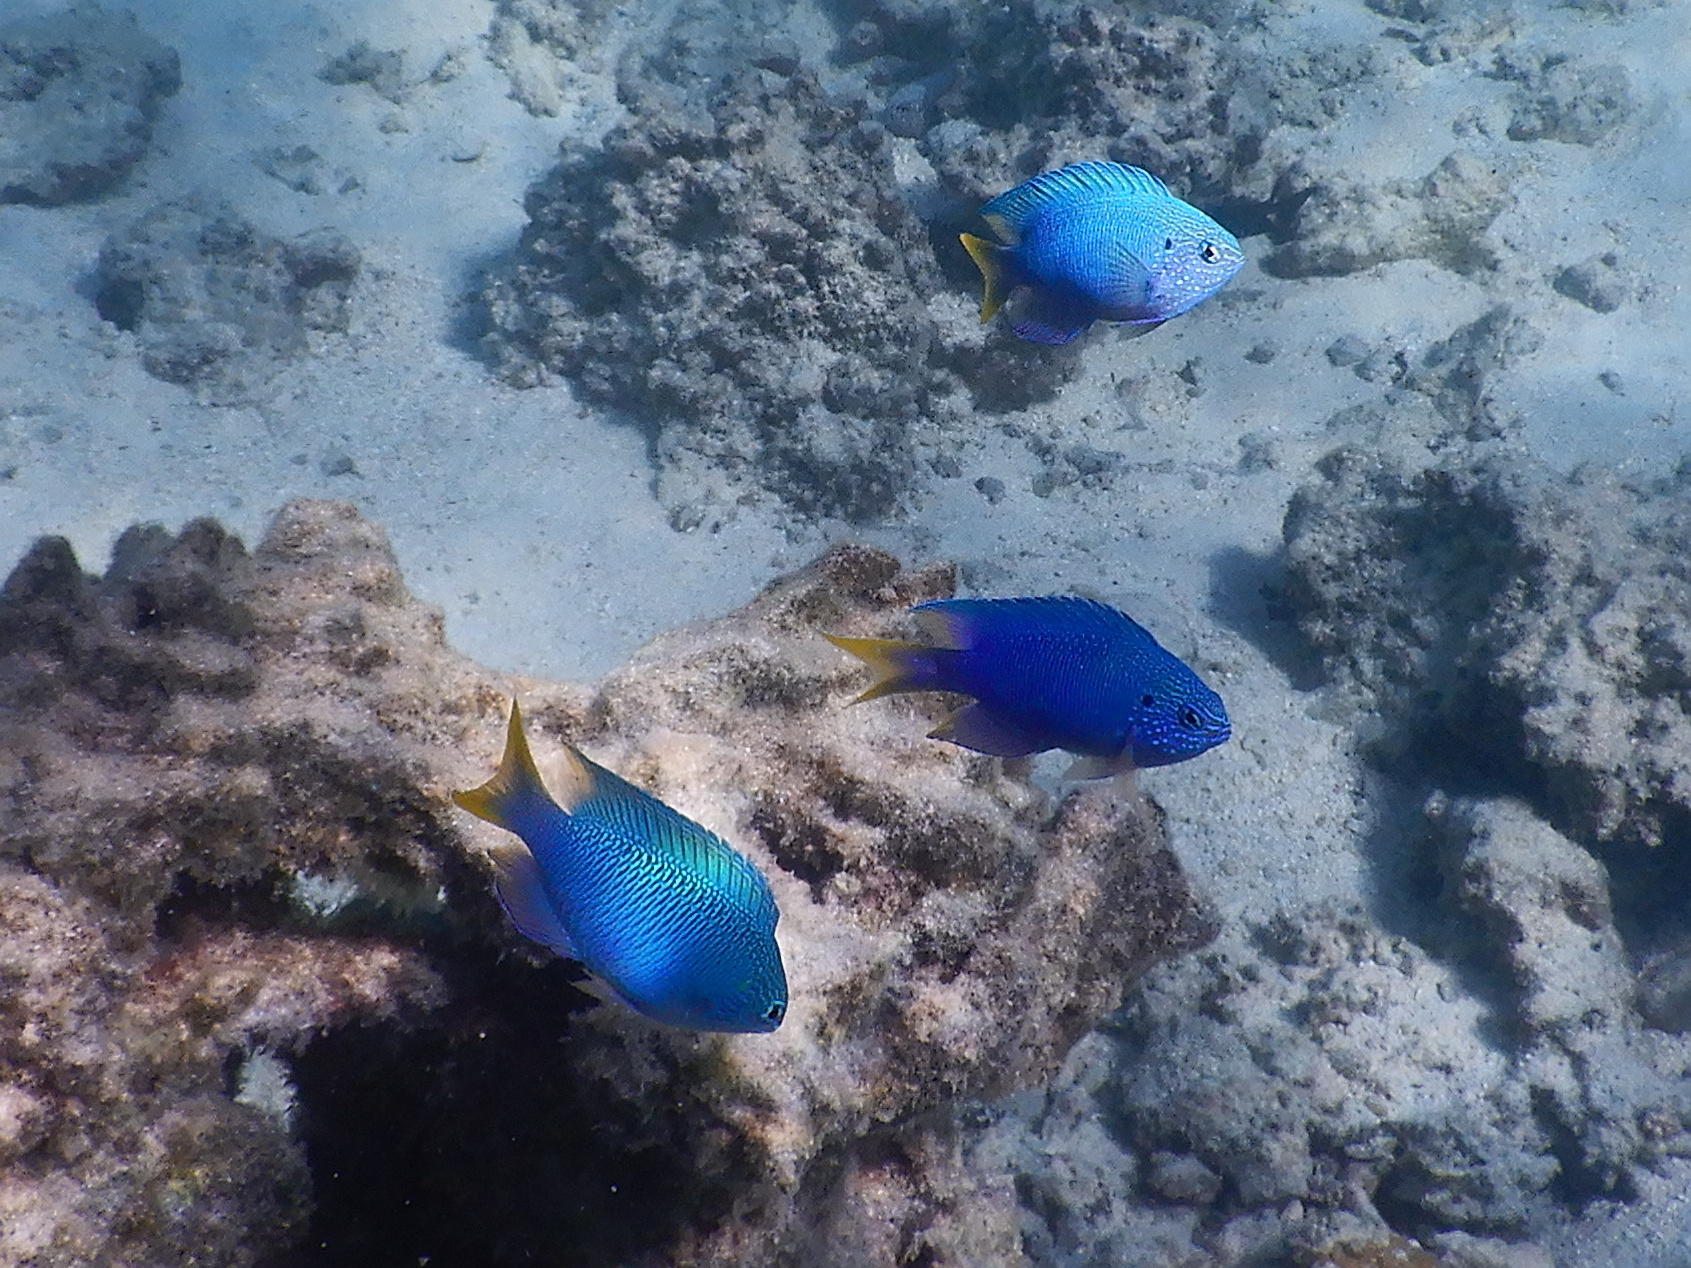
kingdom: Animalia
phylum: Chordata
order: Perciformes
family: Pomacentridae
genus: Pomacentrus
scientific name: Pomacentrus pavo
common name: Sapphire damsel
